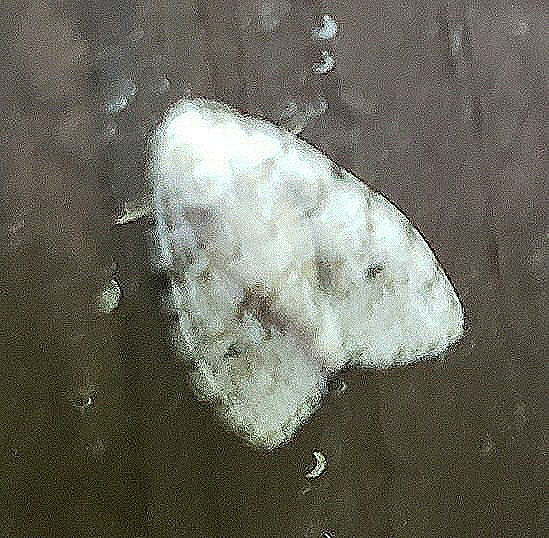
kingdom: Animalia
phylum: Arthropoda
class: Insecta
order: Lepidoptera
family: Erebidae
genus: Clemensia
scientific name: Clemensia albata
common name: Little white lichen moth
